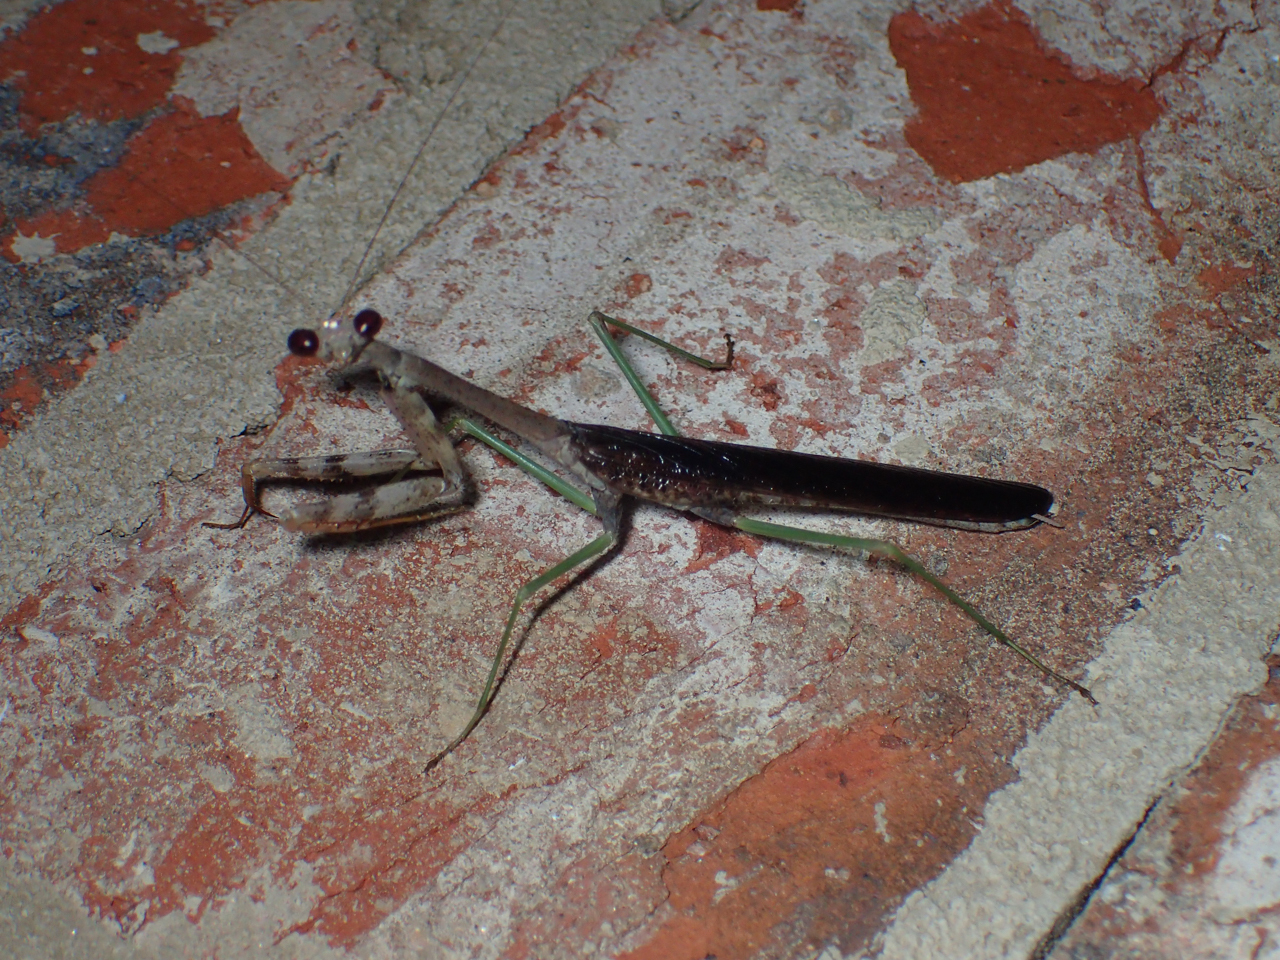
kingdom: Animalia
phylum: Arthropoda
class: Insecta
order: Mantodea
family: Mantidae
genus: Stagmomantis
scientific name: Stagmomantis carolina
